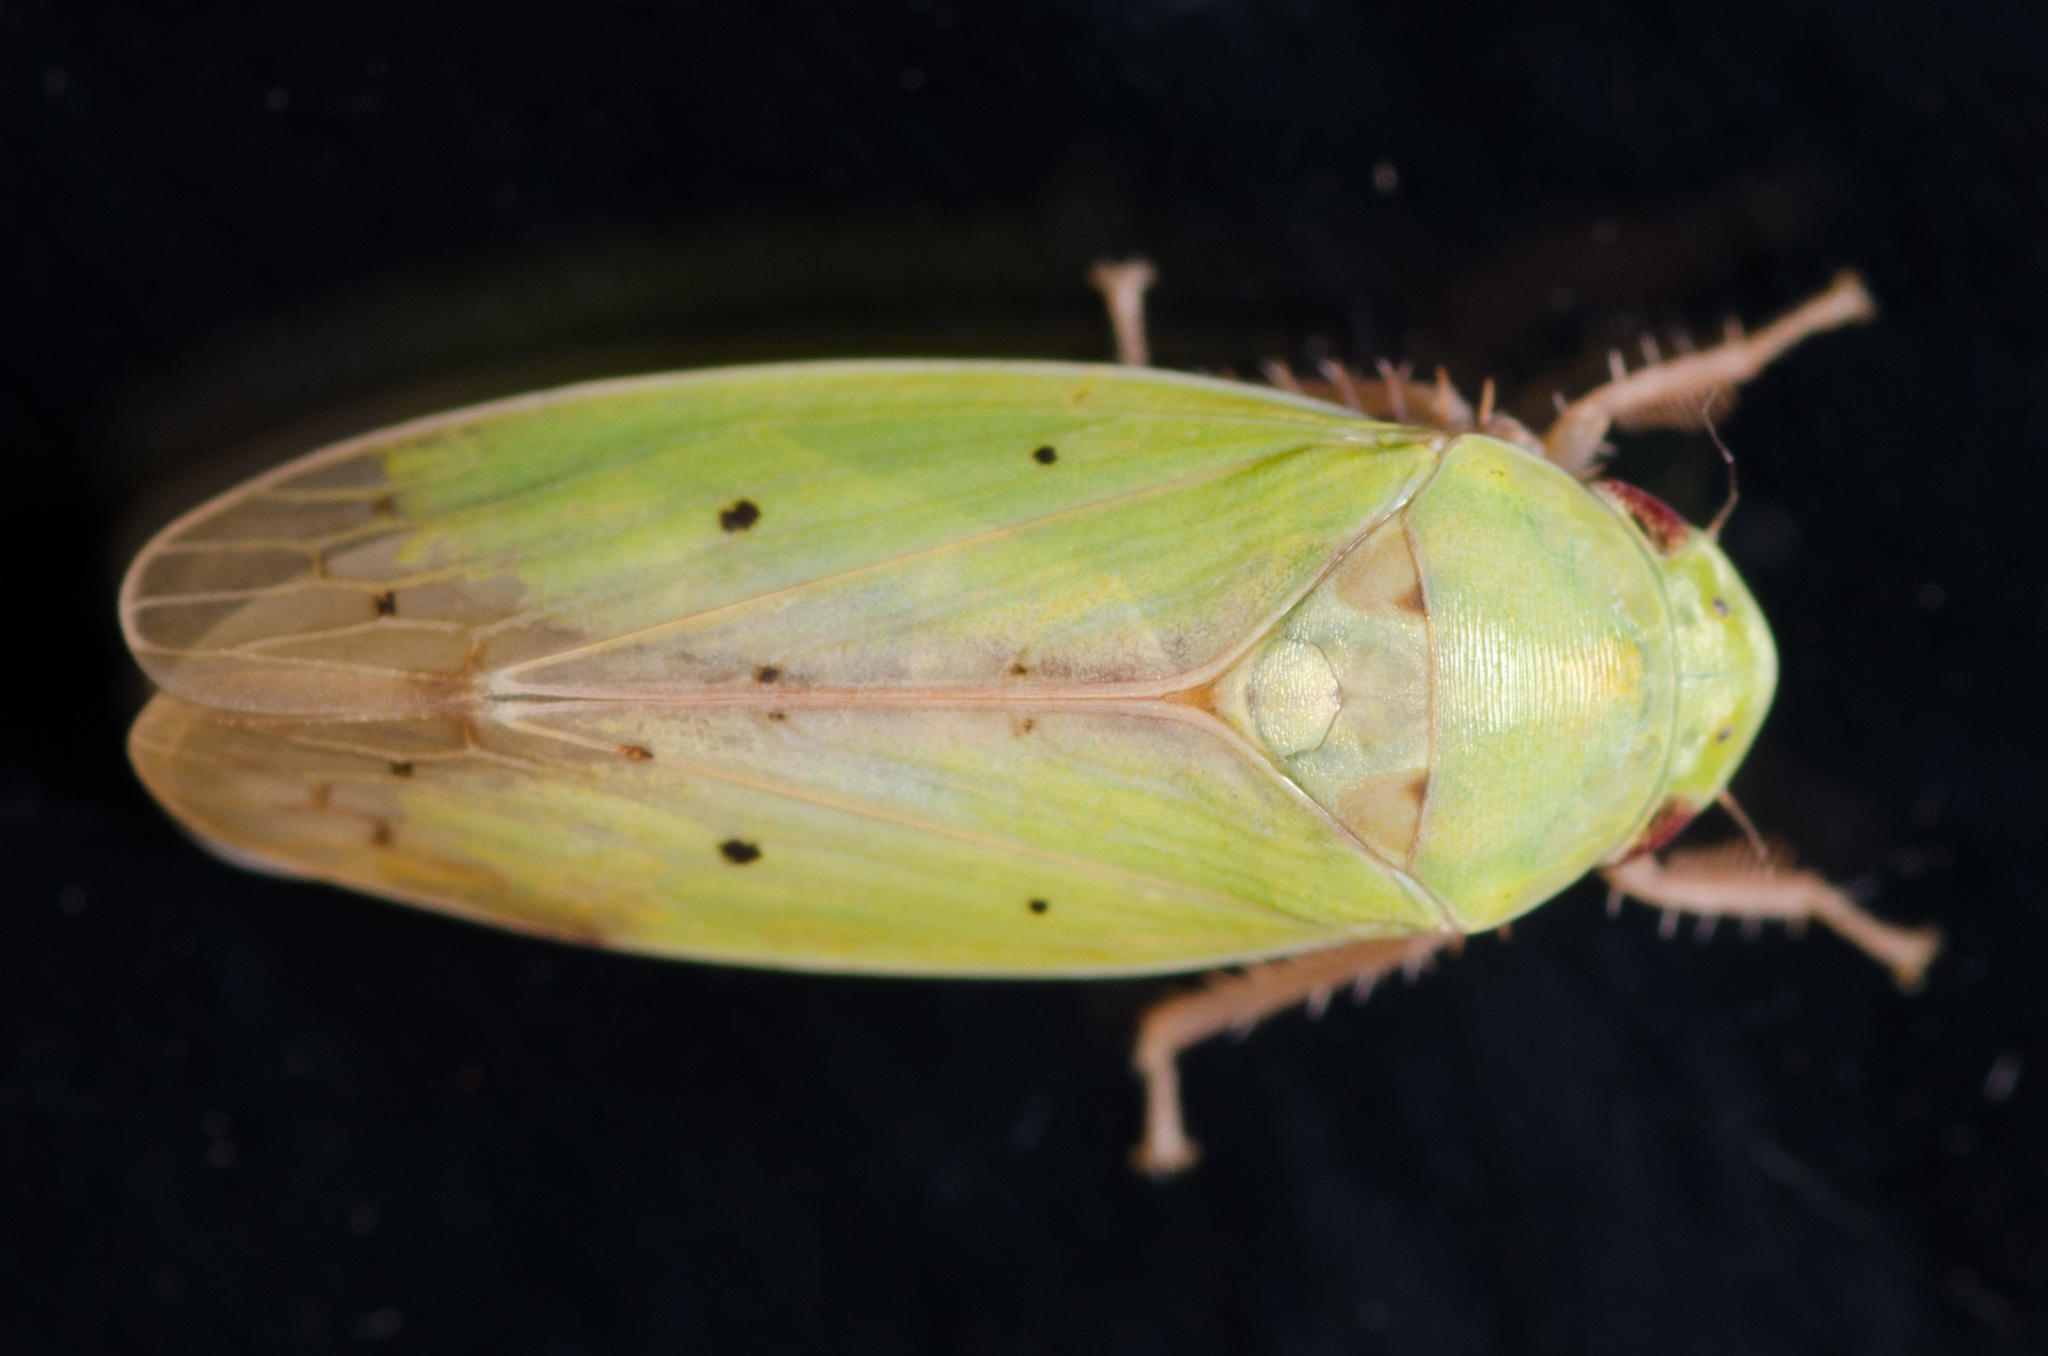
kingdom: Animalia
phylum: Arthropoda
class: Insecta
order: Hemiptera
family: Cicadellidae
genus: Ponana
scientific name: Ponana
